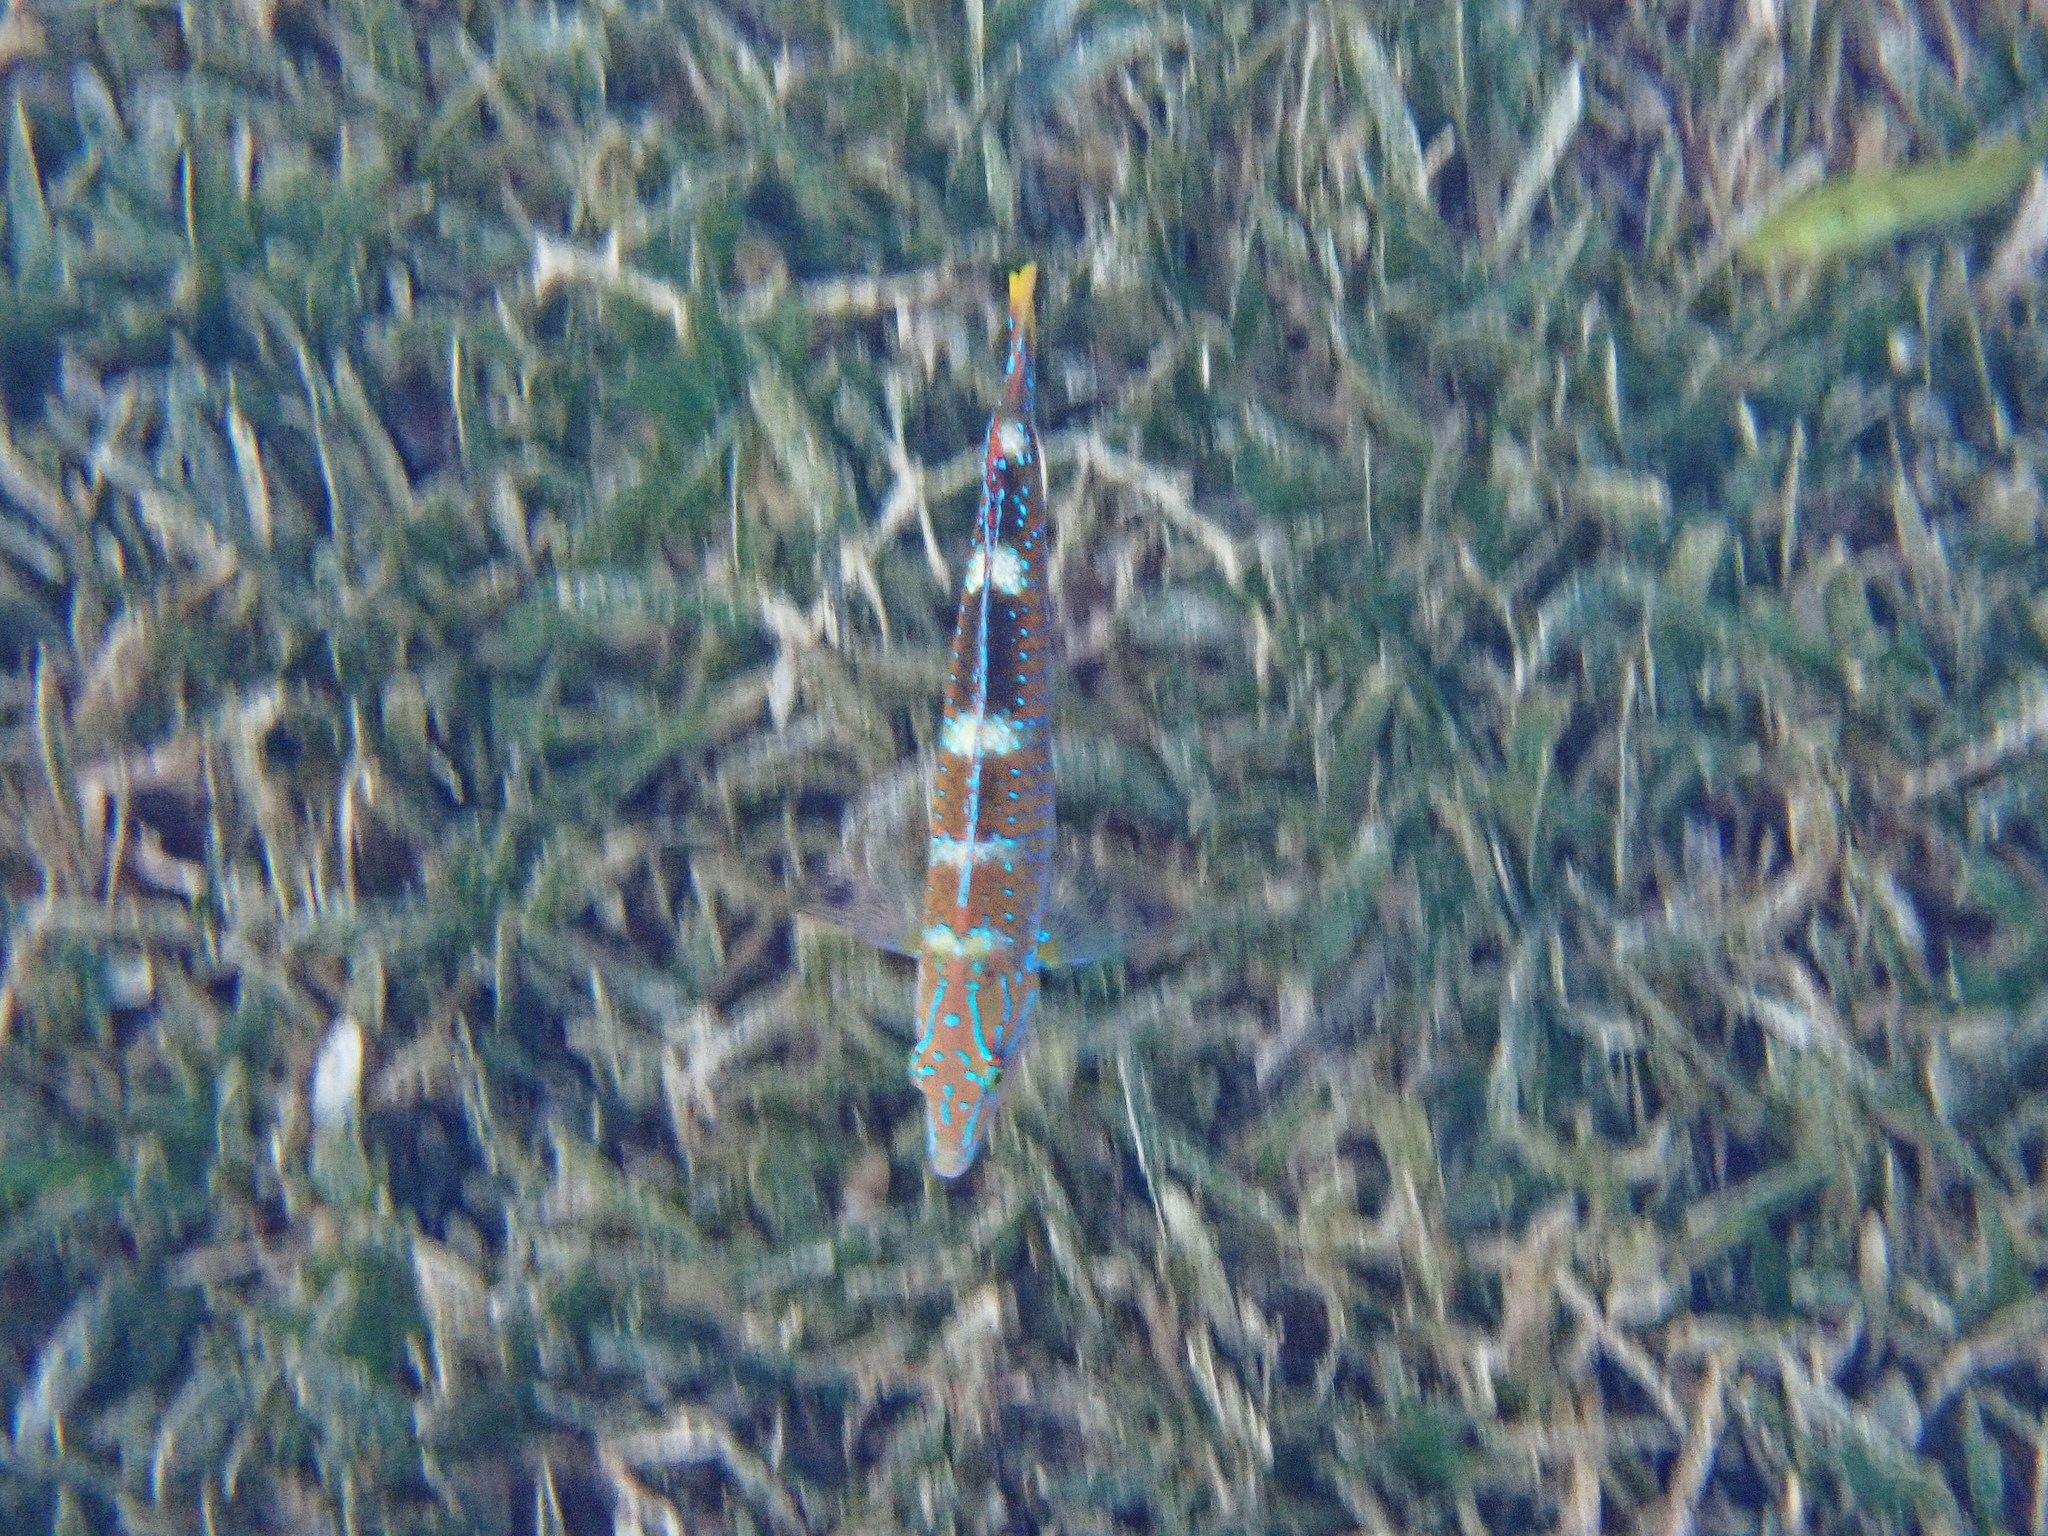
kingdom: Animalia
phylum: Chordata
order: Perciformes
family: Labridae
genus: Halichoeres
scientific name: Halichoeres radiatus
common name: Puddingwife
